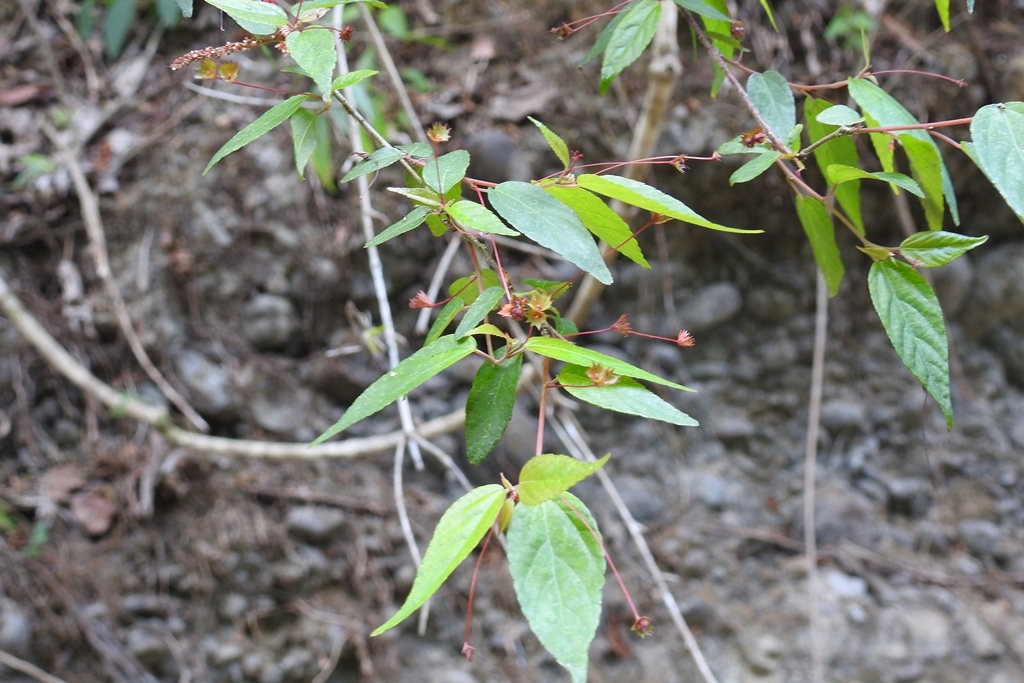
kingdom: Plantae
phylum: Tracheophyta
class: Magnoliopsida
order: Malpighiales
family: Euphorbiaceae
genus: Acalypha
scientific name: Acalypha chiapensis
